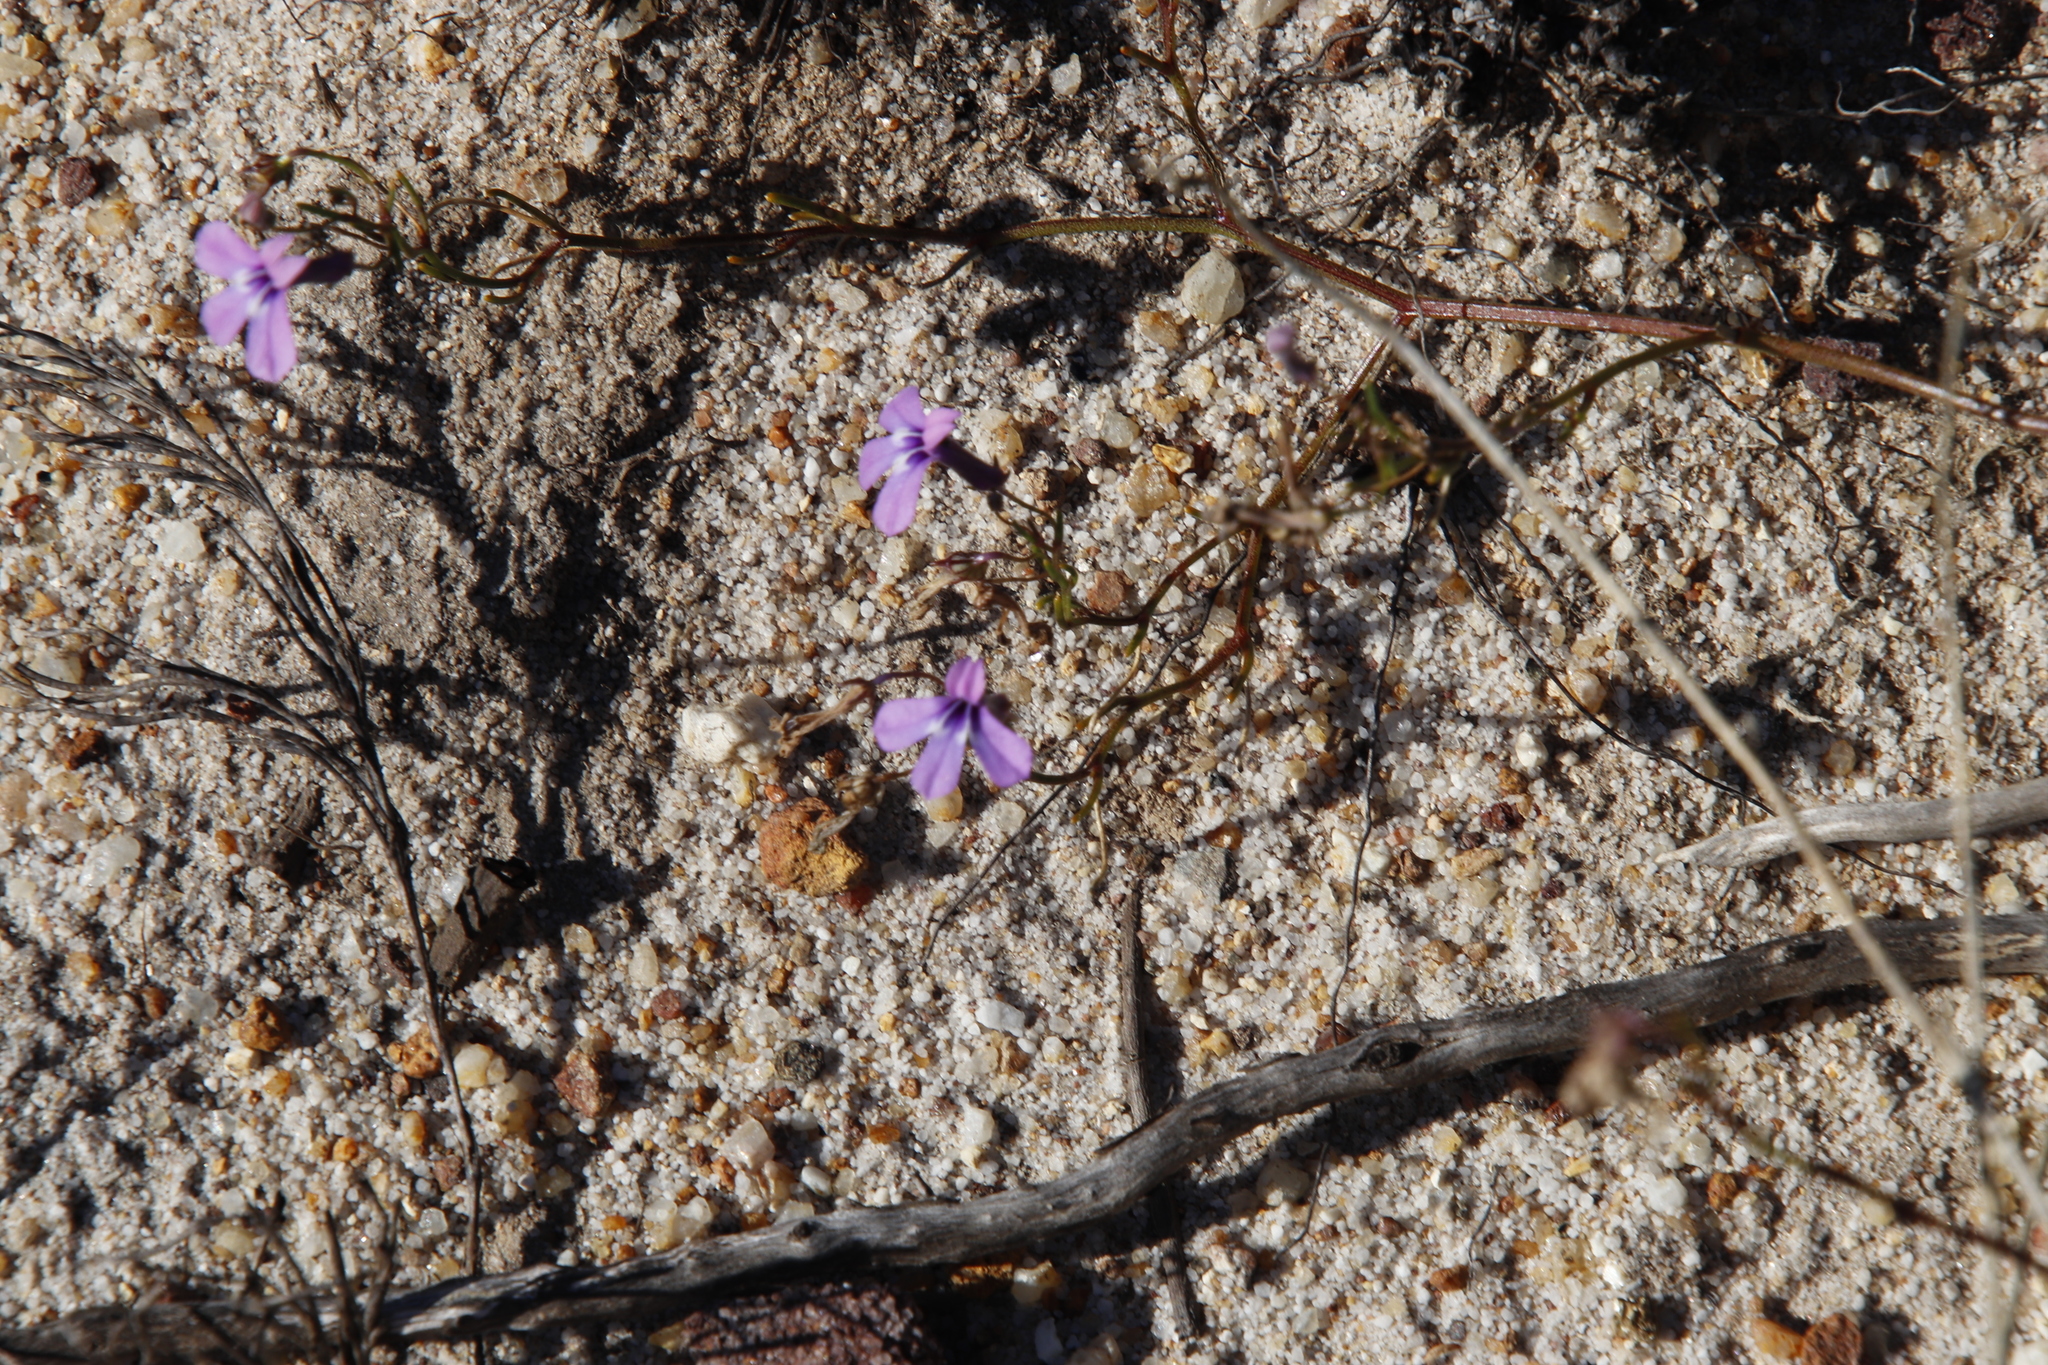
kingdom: Plantae
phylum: Tracheophyta
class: Magnoliopsida
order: Asterales
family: Campanulaceae
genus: Lobelia
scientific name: Lobelia setacea
